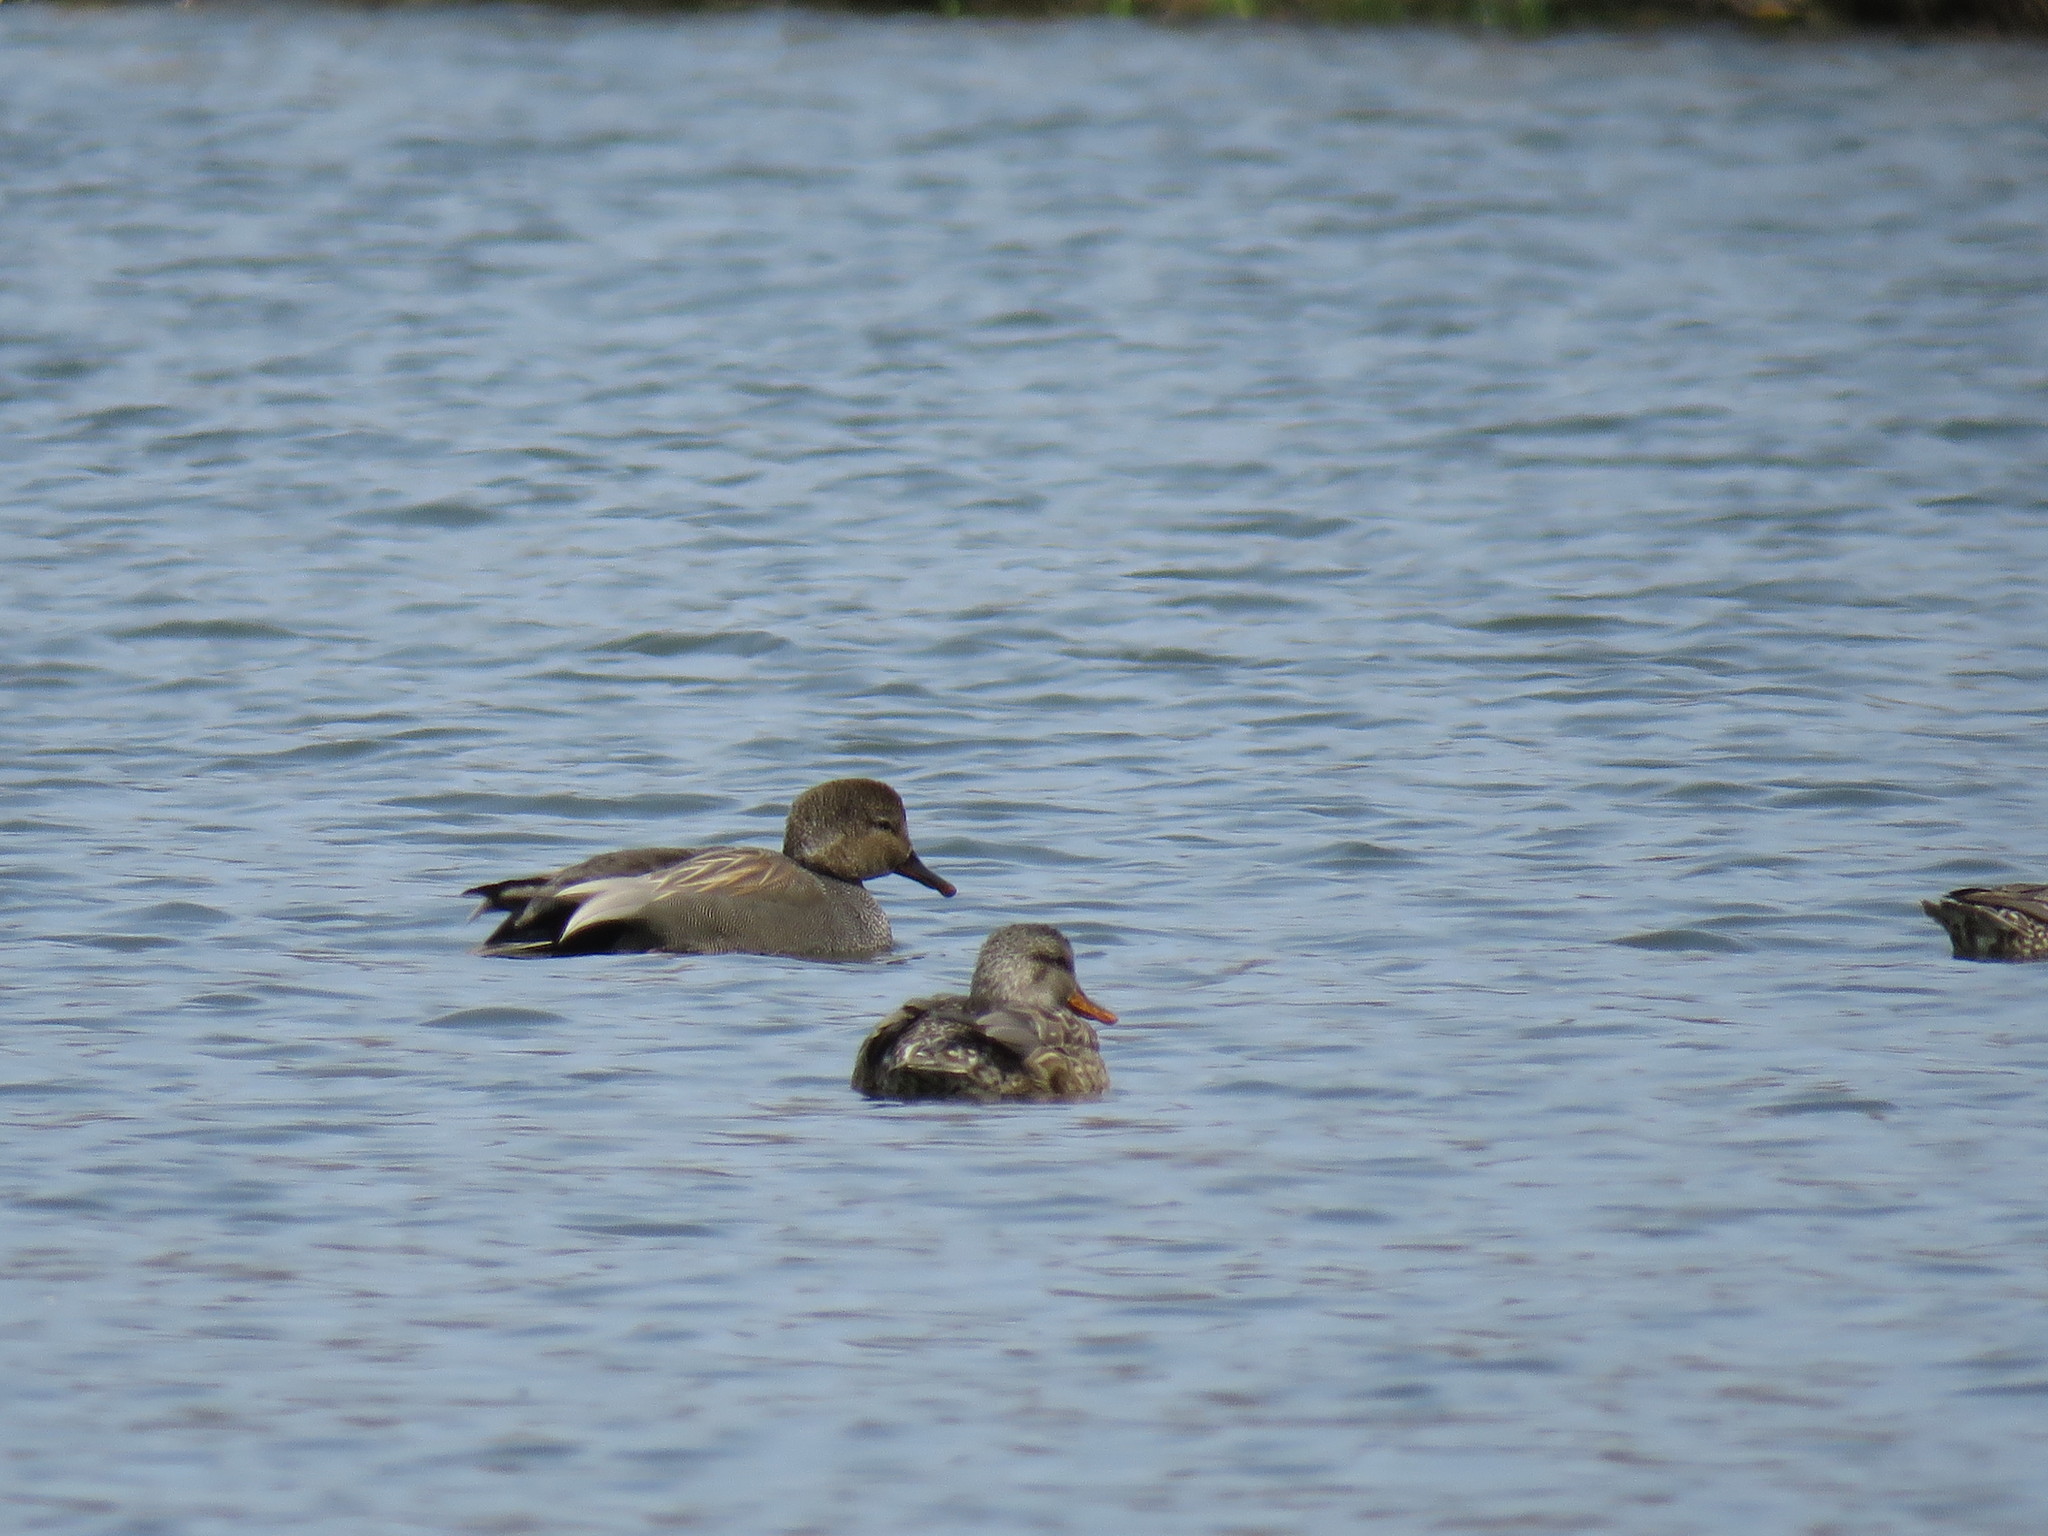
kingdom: Animalia
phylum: Chordata
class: Aves
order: Anseriformes
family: Anatidae
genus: Mareca
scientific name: Mareca strepera
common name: Gadwall
